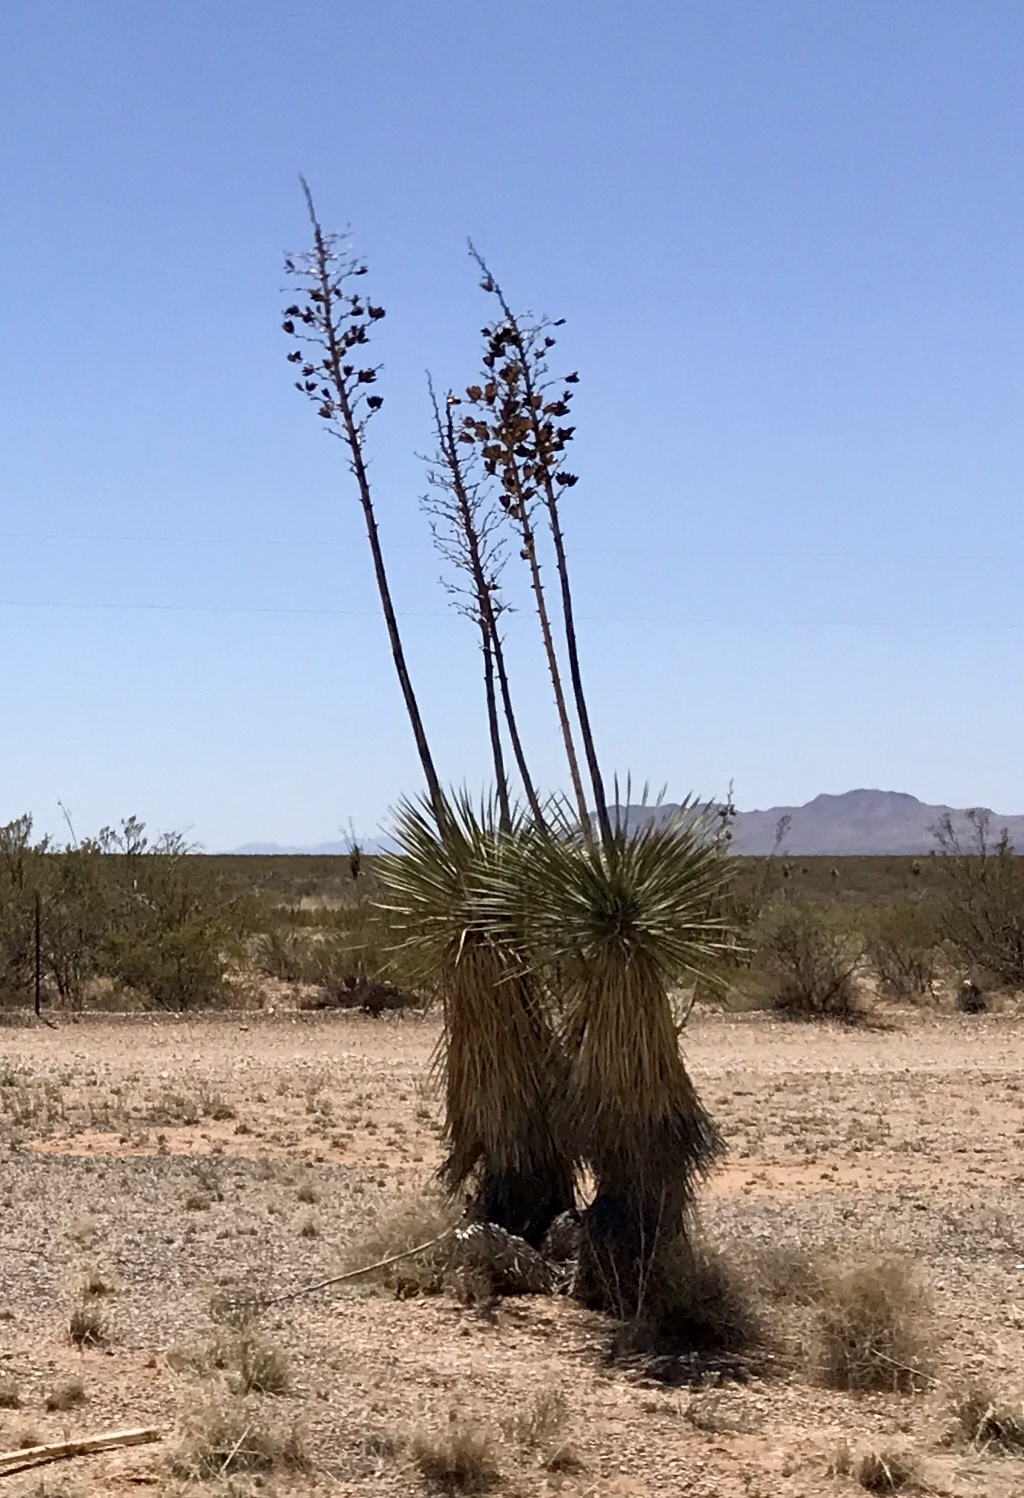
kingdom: Plantae
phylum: Tracheophyta
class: Liliopsida
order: Asparagales
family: Asparagaceae
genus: Yucca
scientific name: Yucca elata
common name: Palmella
